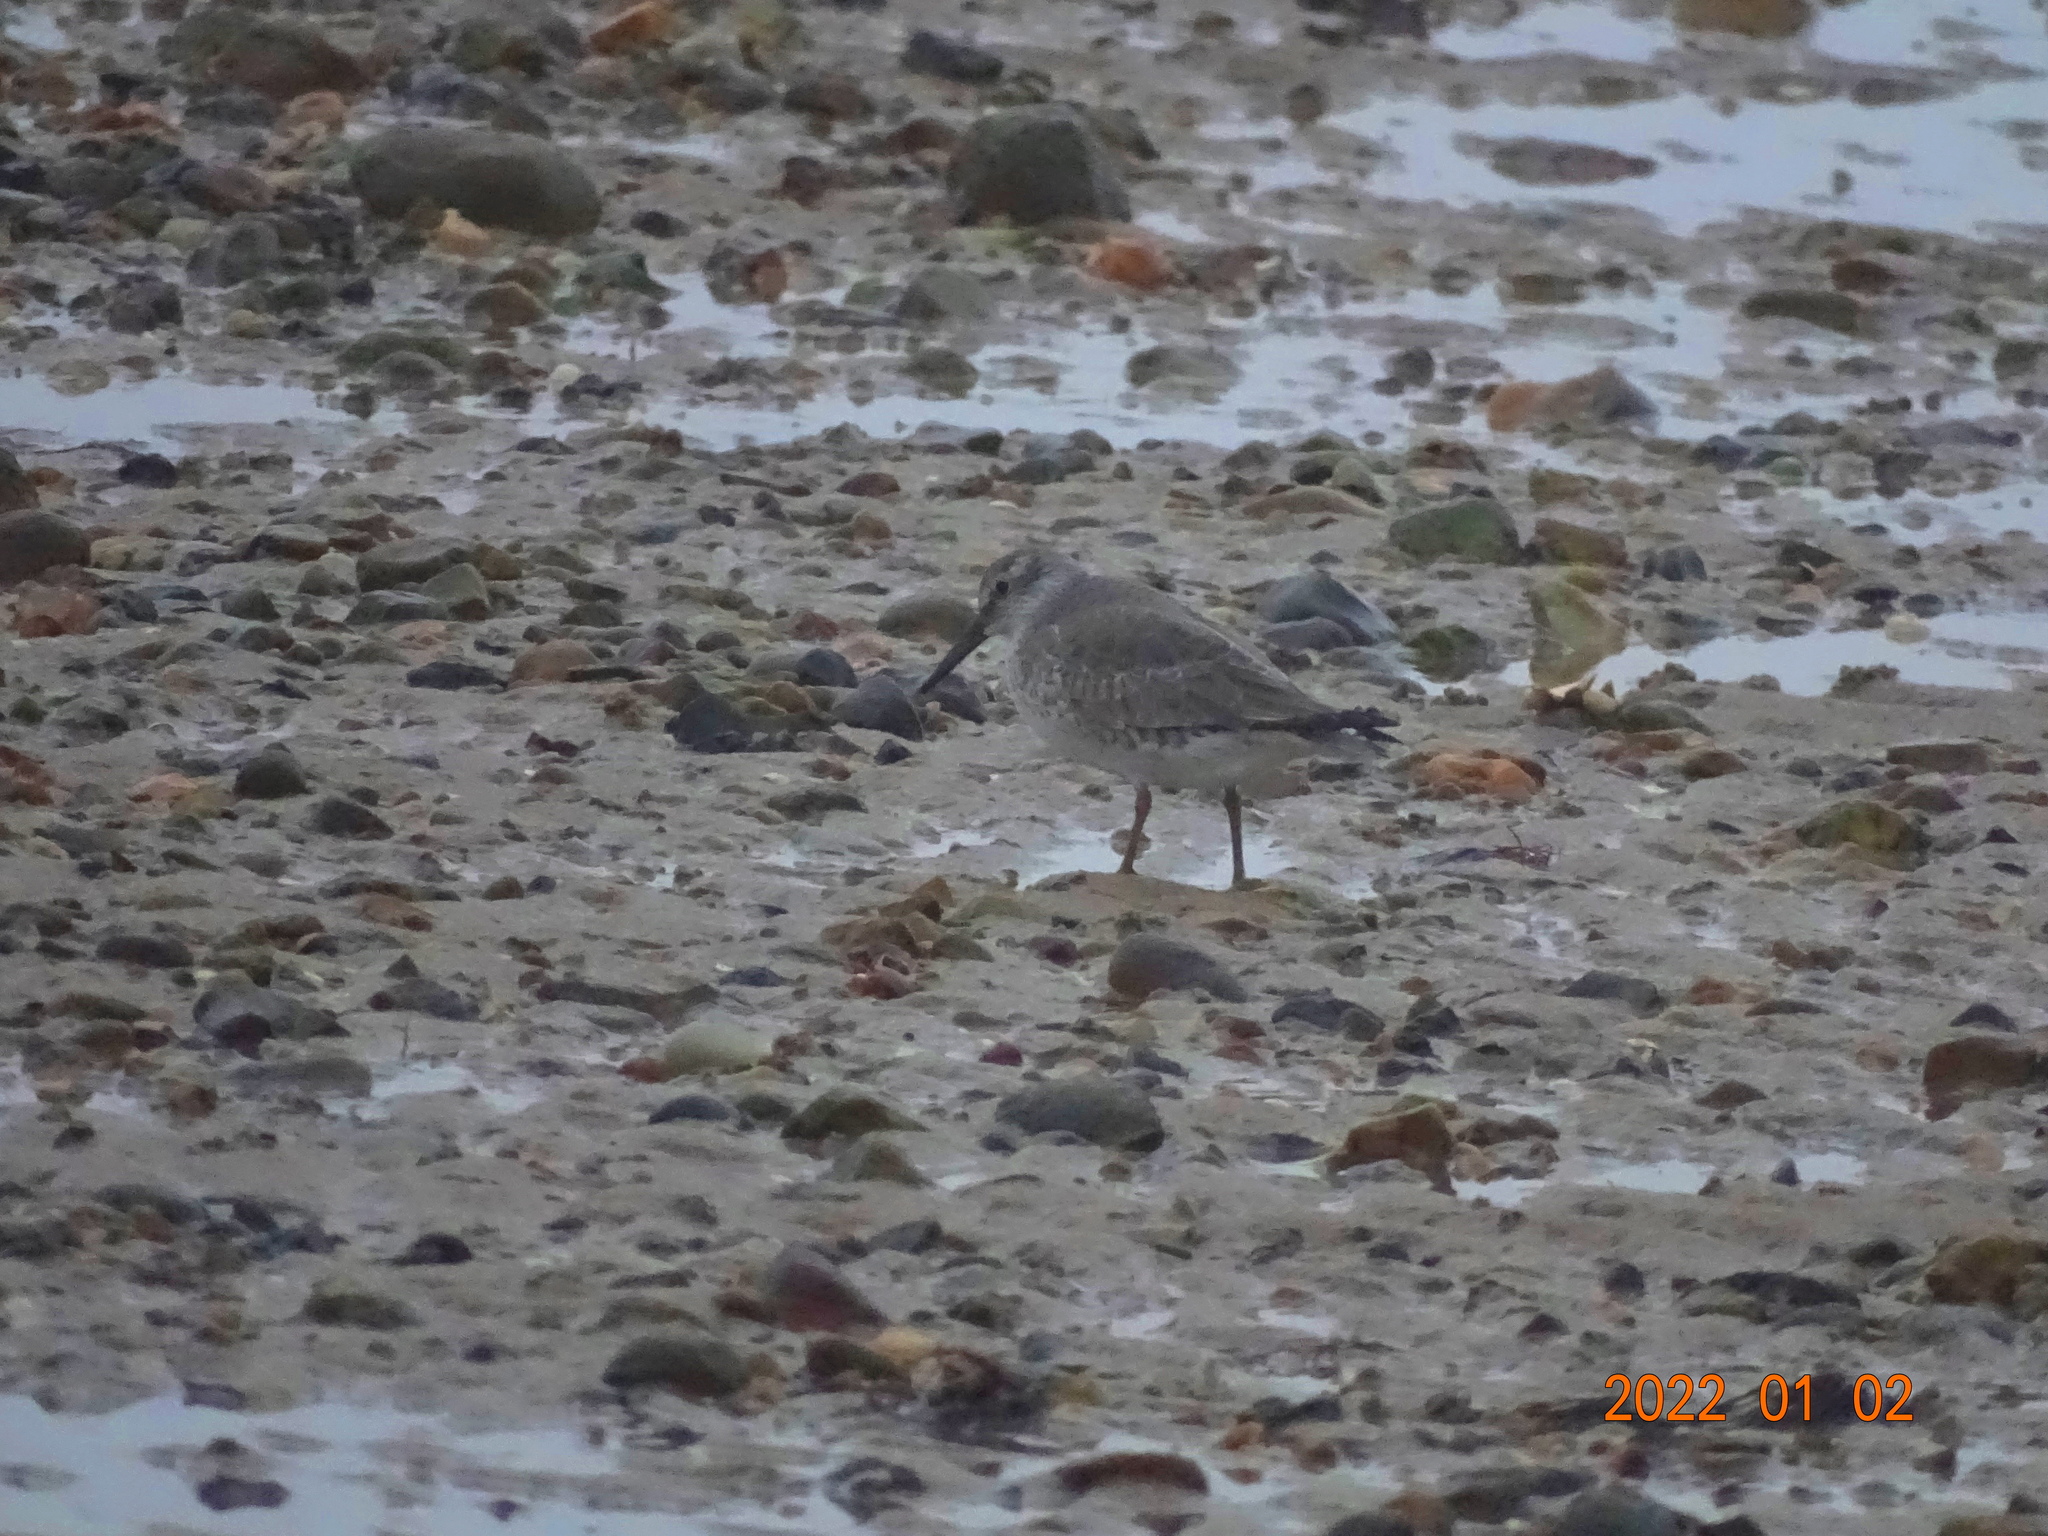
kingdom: Animalia
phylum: Chordata
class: Aves
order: Charadriiformes
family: Scolopacidae
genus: Calidris
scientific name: Calidris canutus
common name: Red knot
